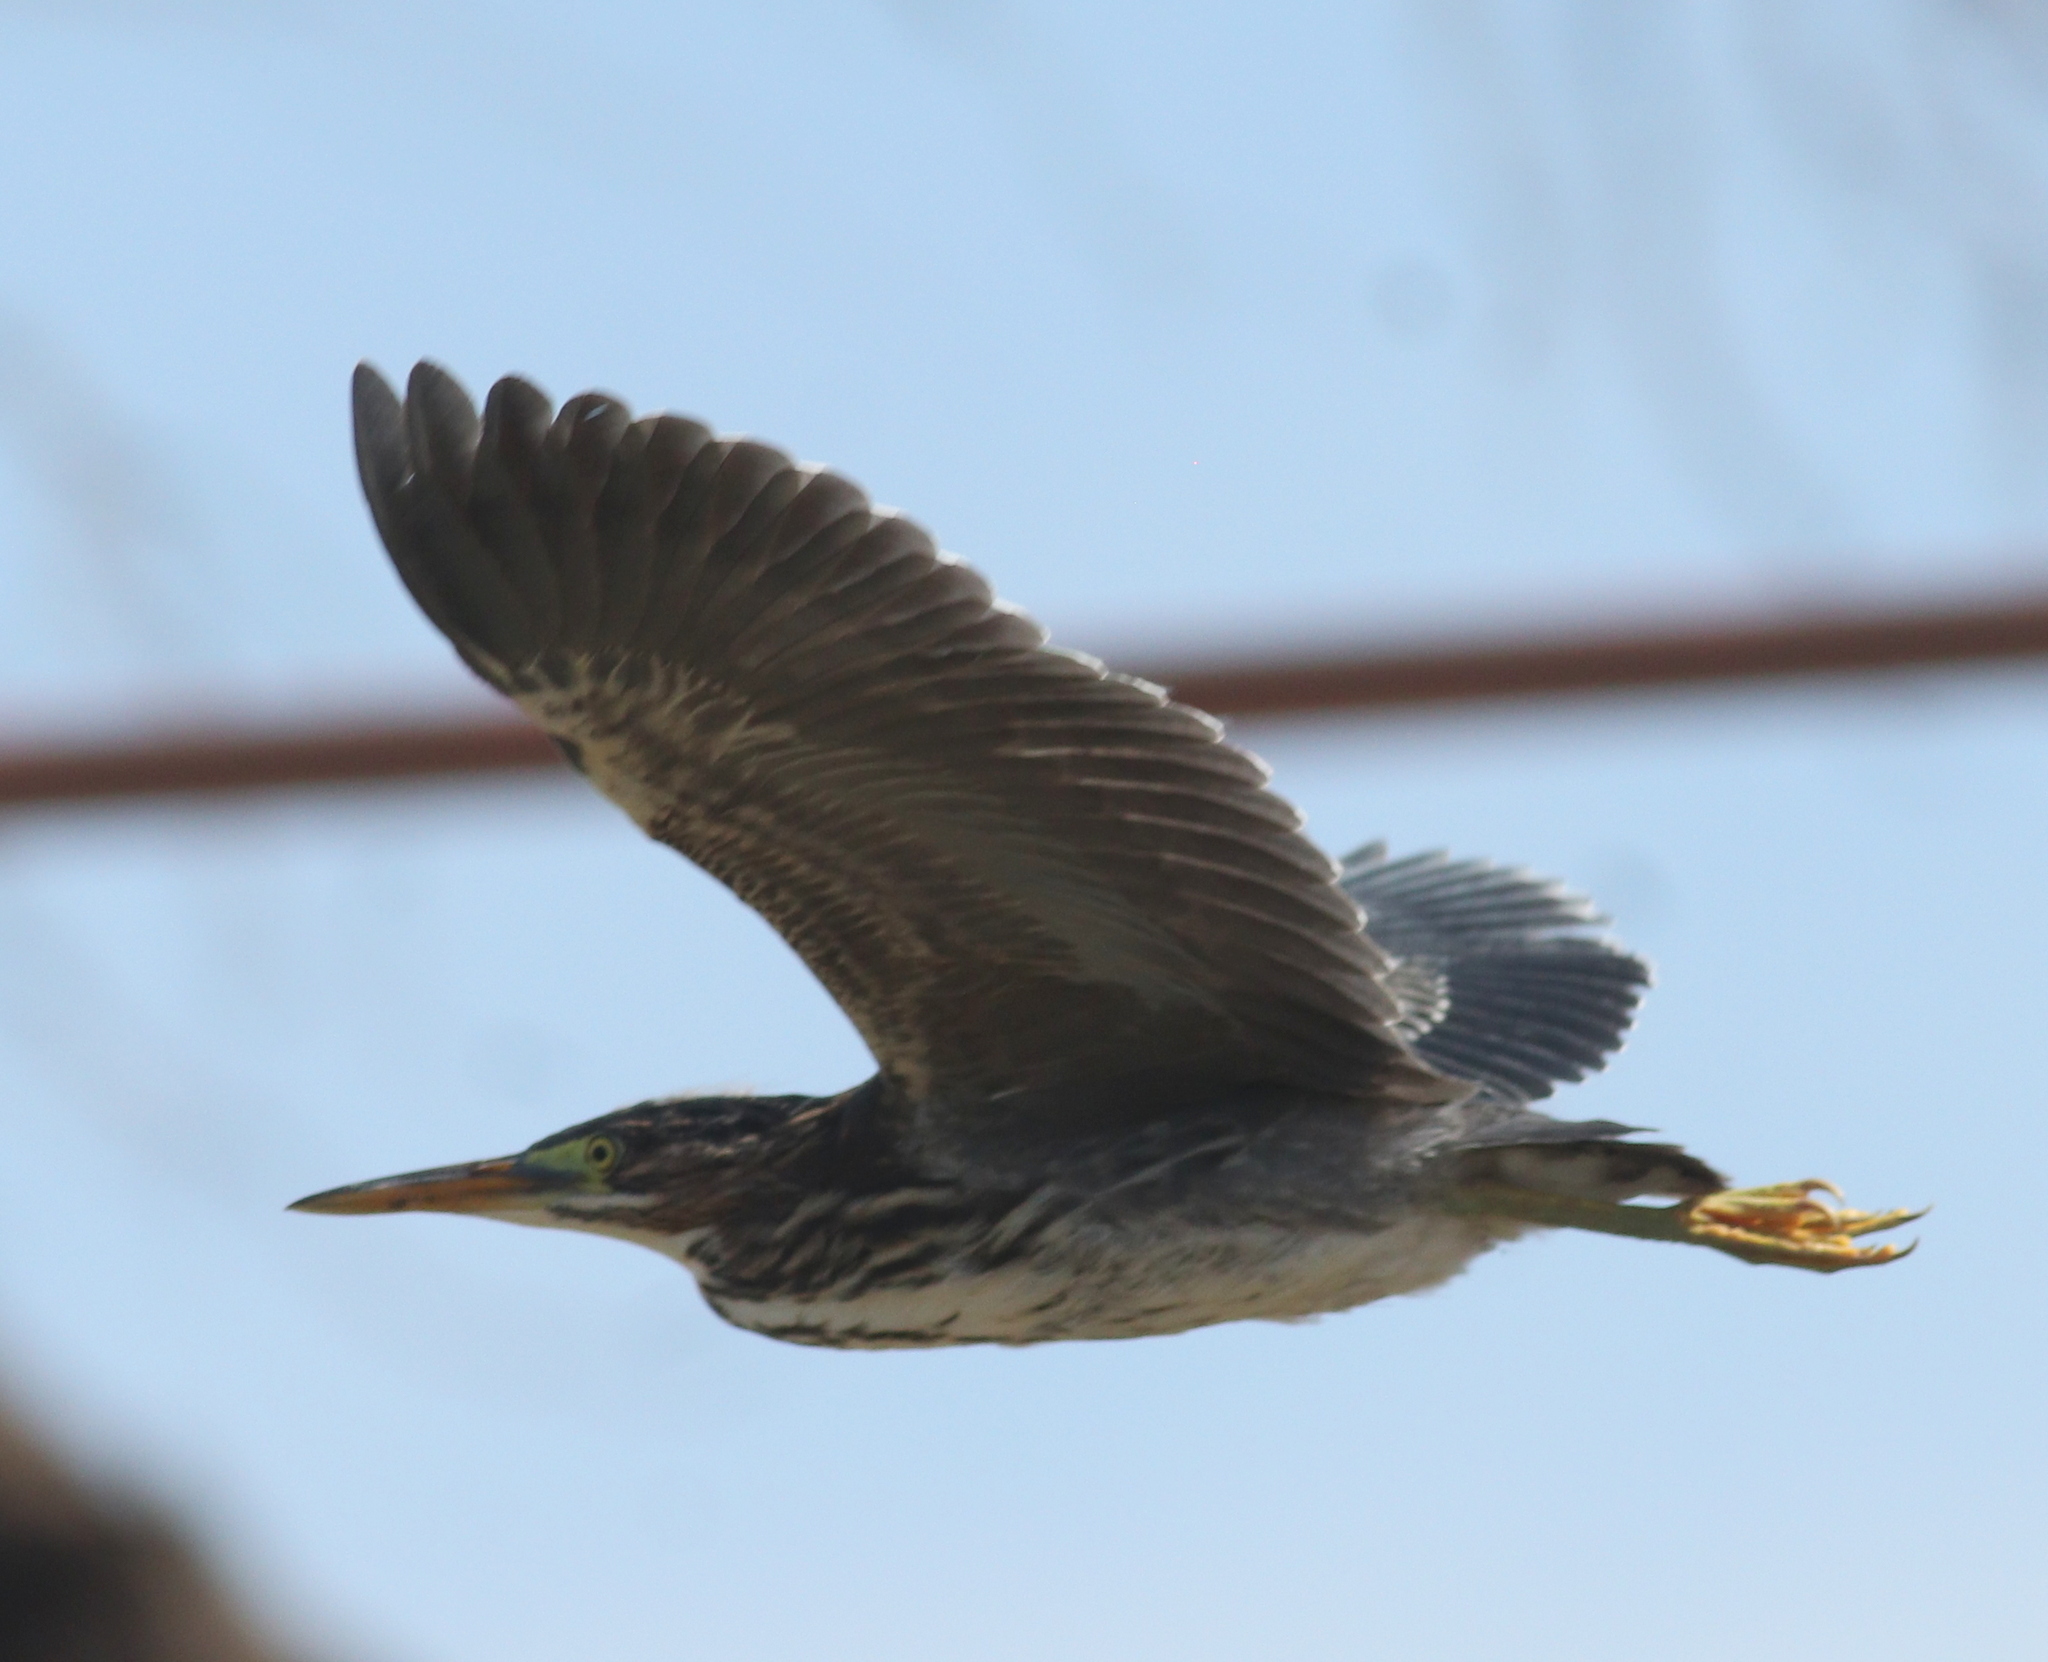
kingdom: Animalia
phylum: Chordata
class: Aves
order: Pelecaniformes
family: Ardeidae
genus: Butorides
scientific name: Butorides virescens
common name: Green heron
